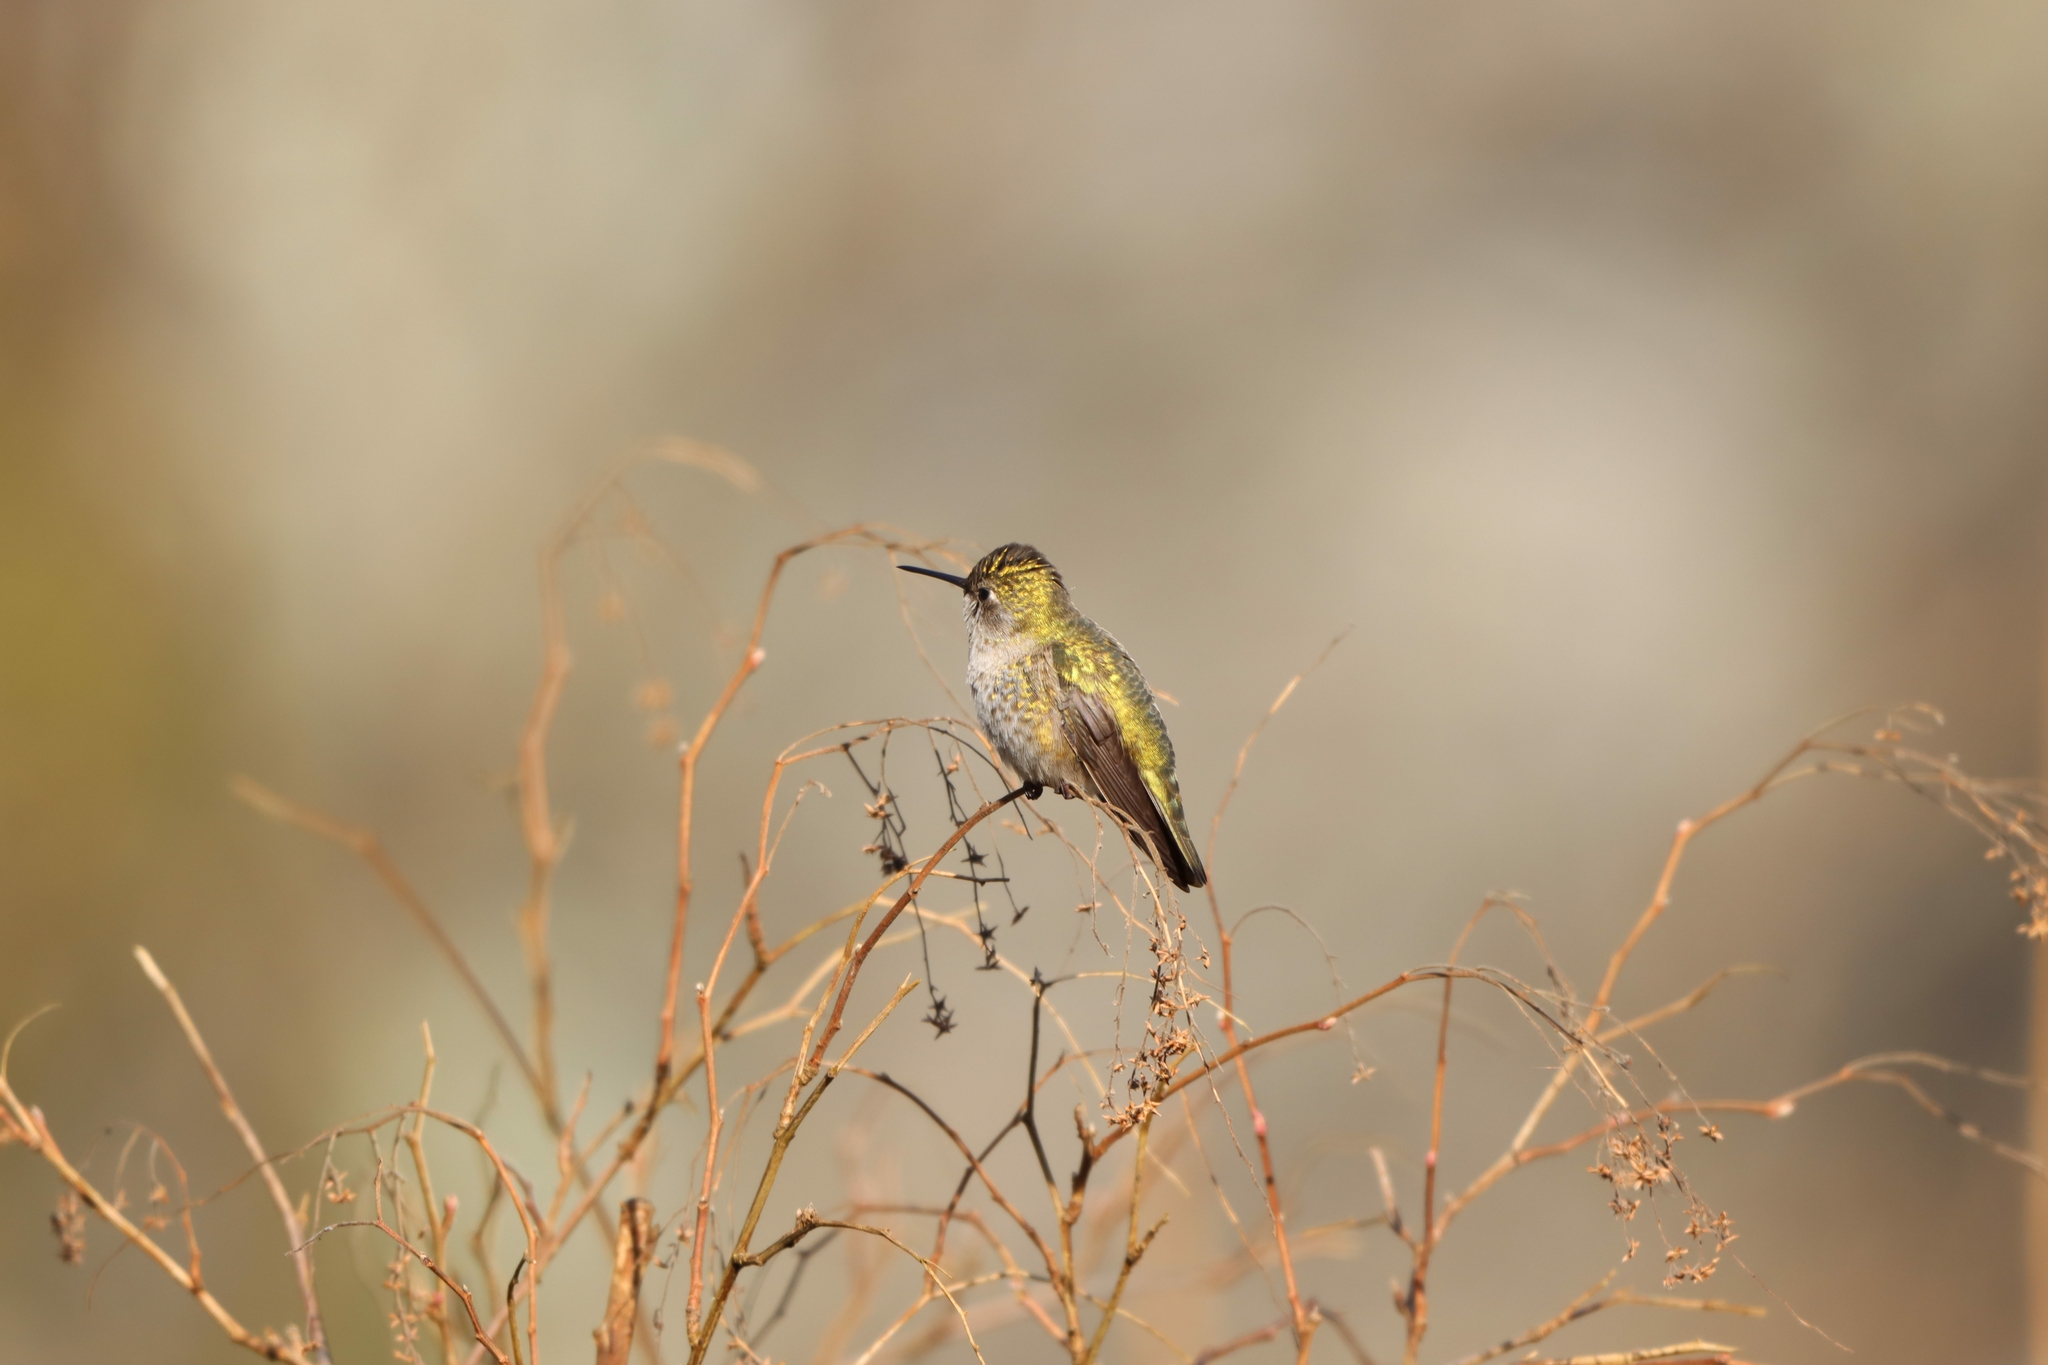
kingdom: Animalia
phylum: Chordata
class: Aves
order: Apodiformes
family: Trochilidae
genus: Calypte
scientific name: Calypte anna
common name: Anna's hummingbird
